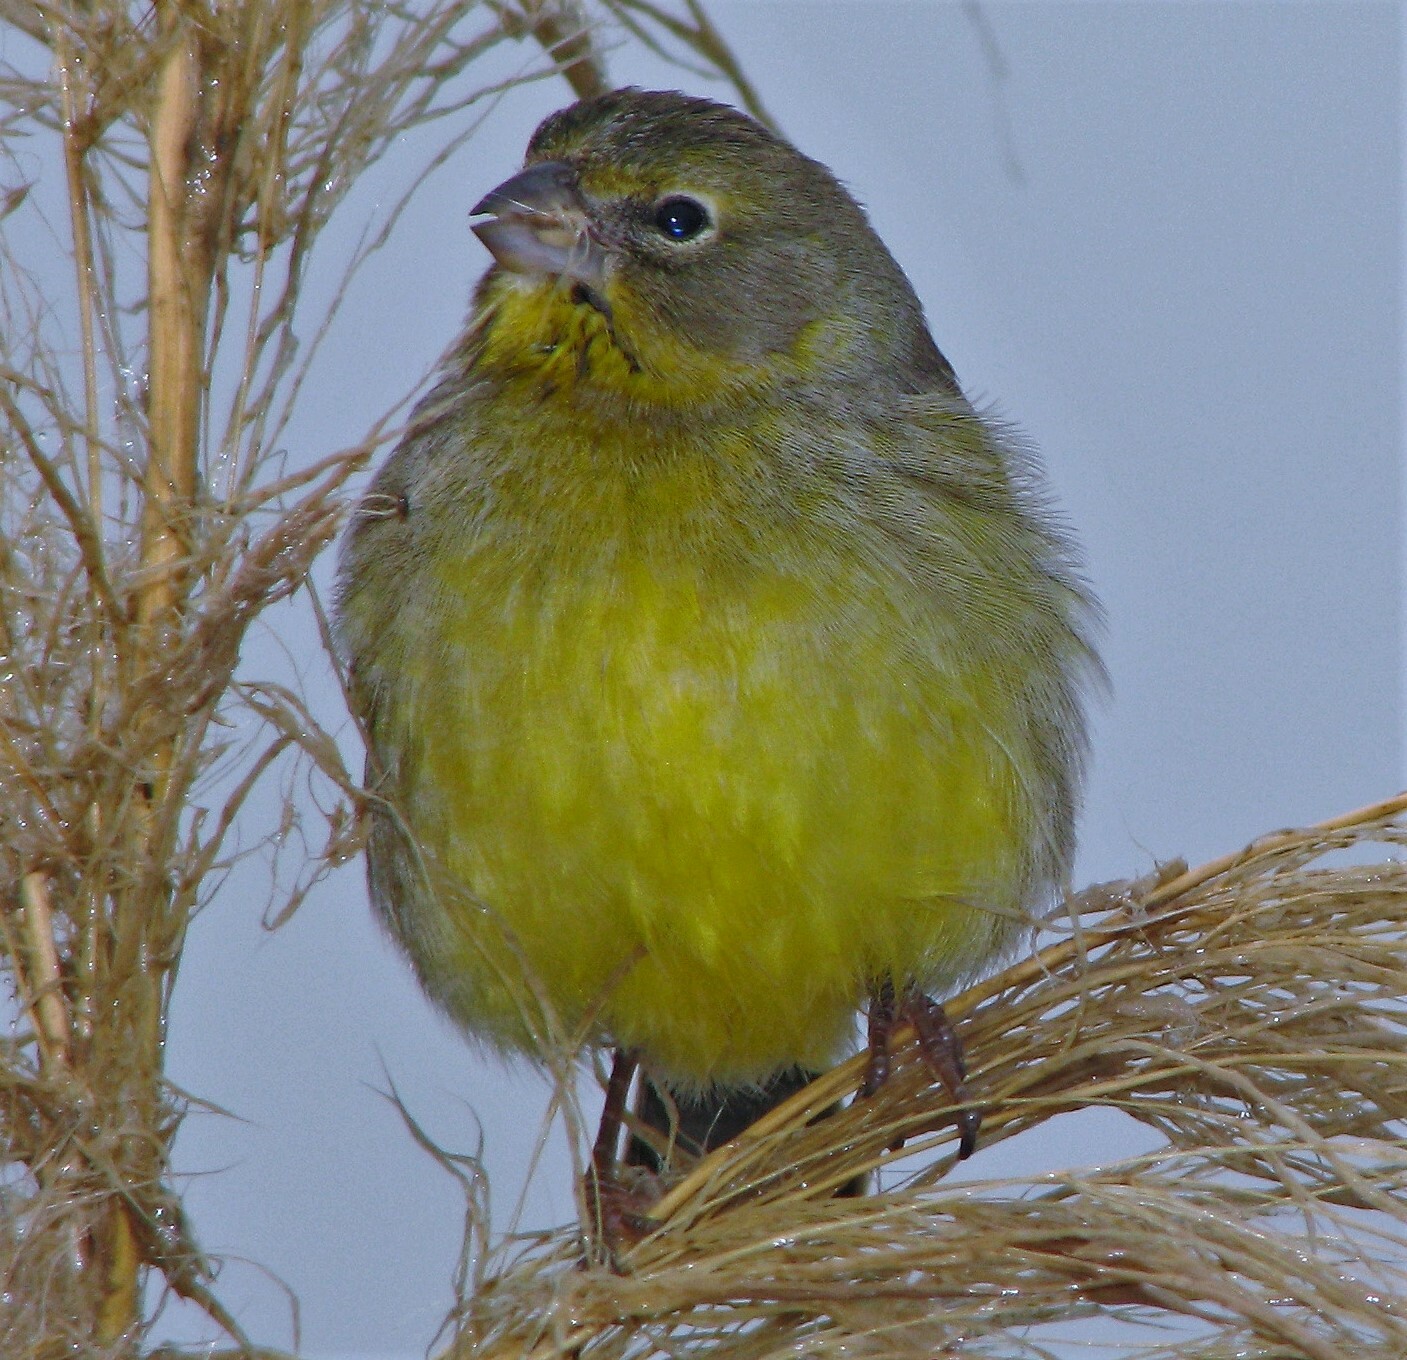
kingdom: Animalia
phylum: Chordata
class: Aves
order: Passeriformes
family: Thraupidae
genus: Sicalis
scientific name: Sicalis luteola
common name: Grassland yellow-finch
